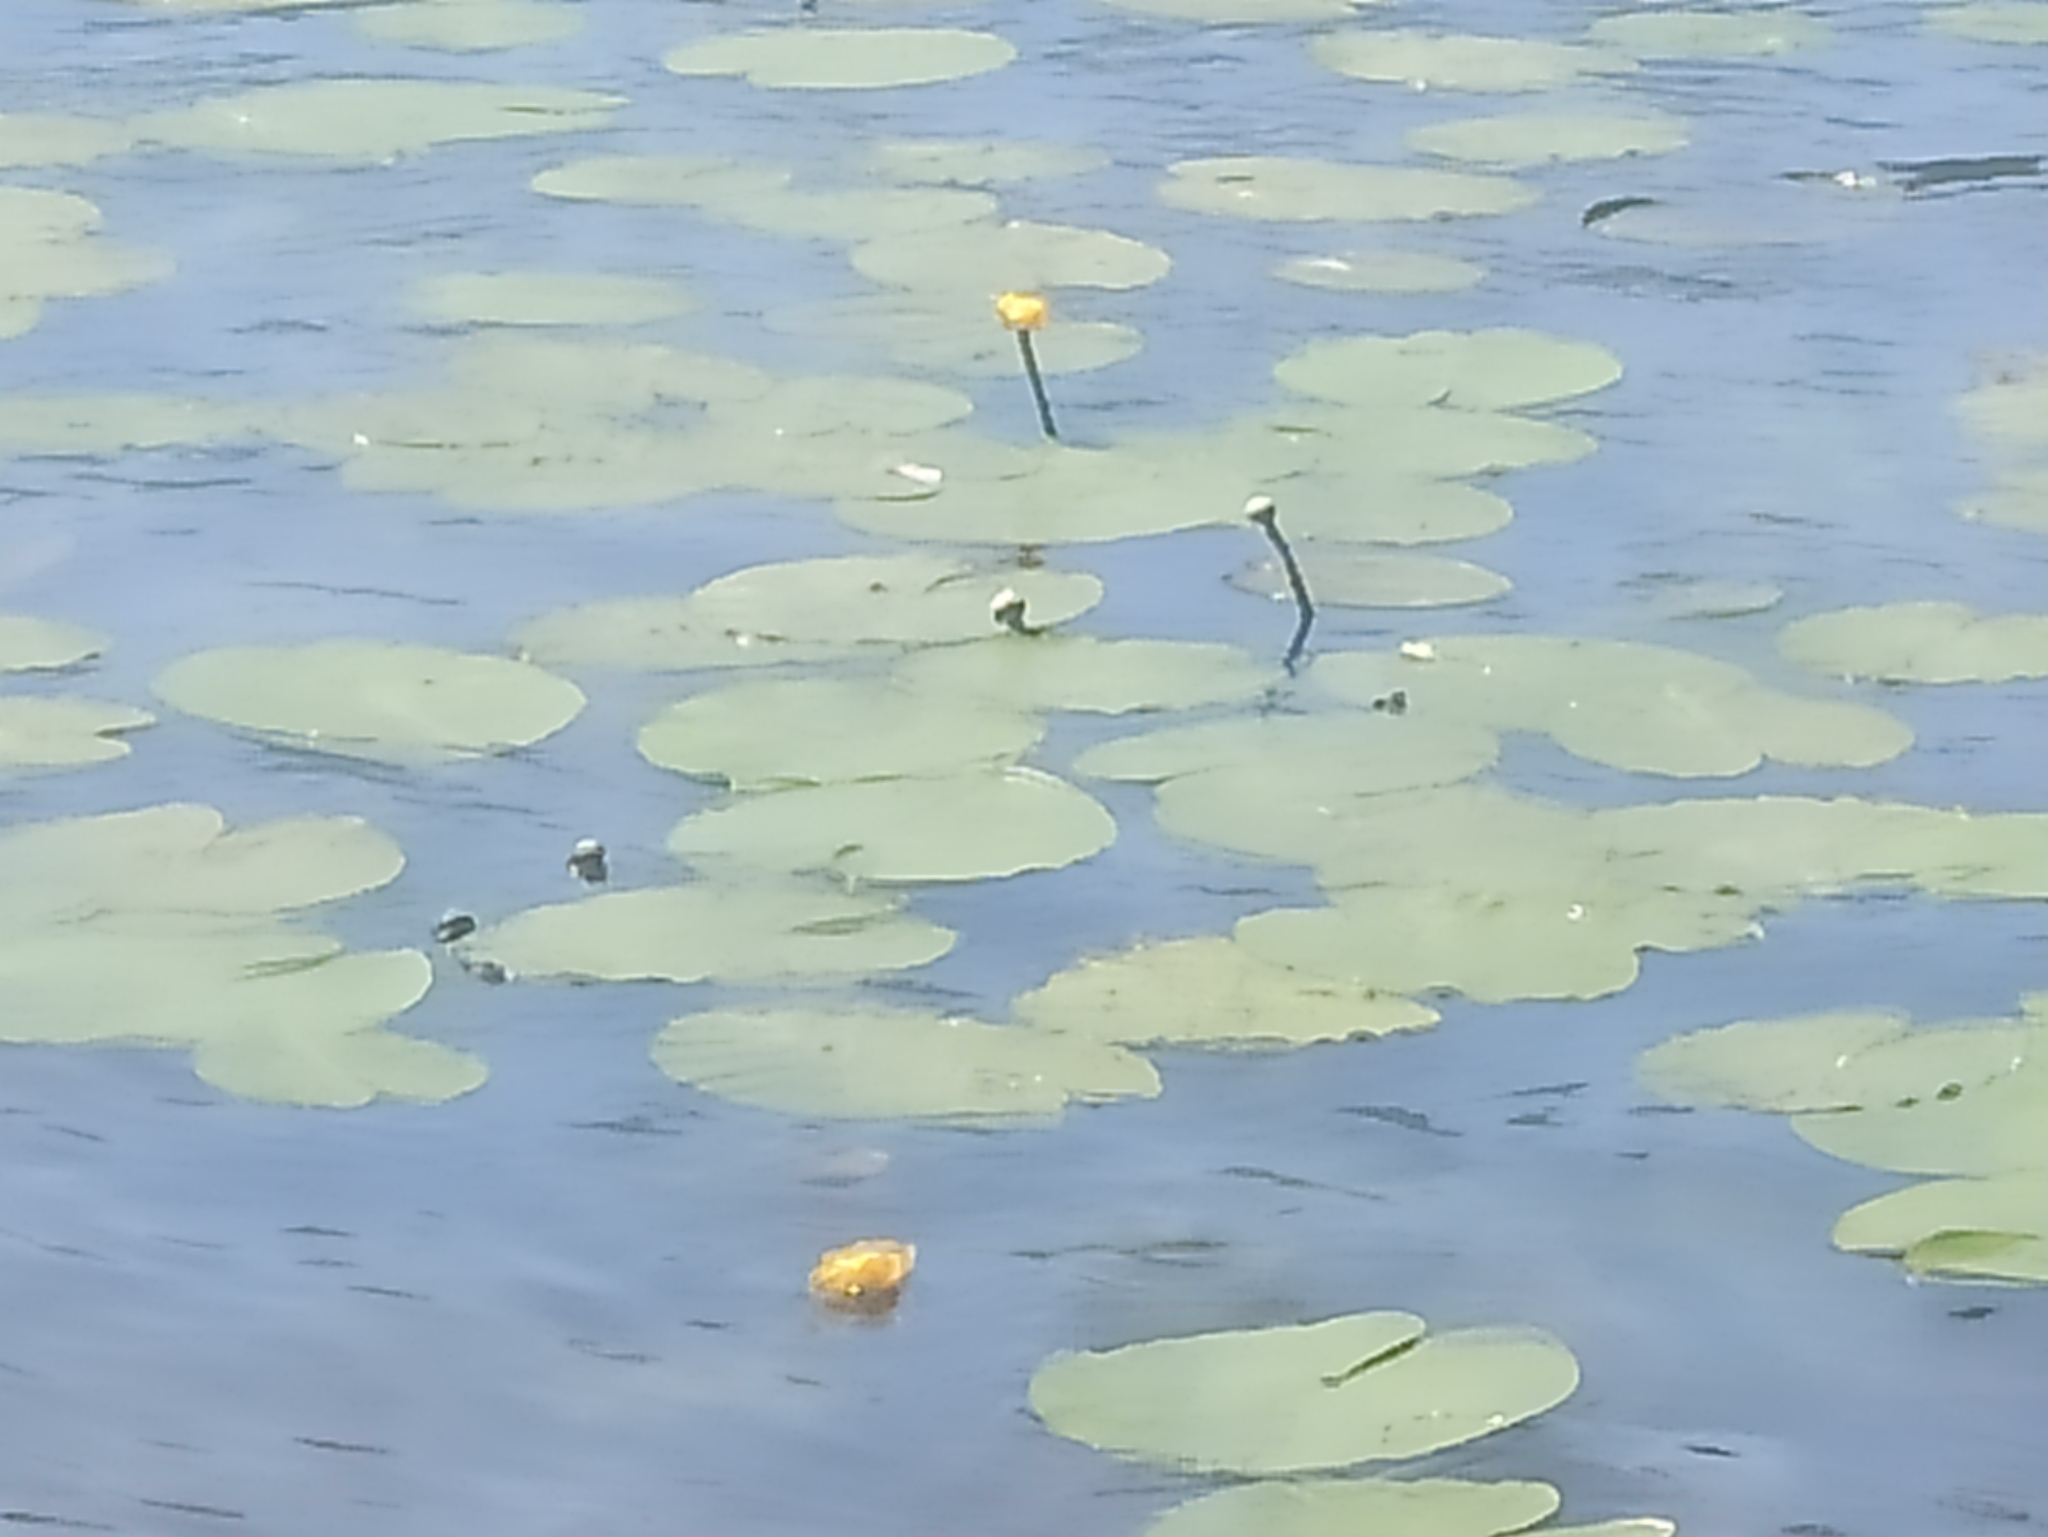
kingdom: Plantae
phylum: Tracheophyta
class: Magnoliopsida
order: Nymphaeales
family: Nymphaeaceae
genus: Nuphar
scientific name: Nuphar lutea
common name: Yellow water-lily
